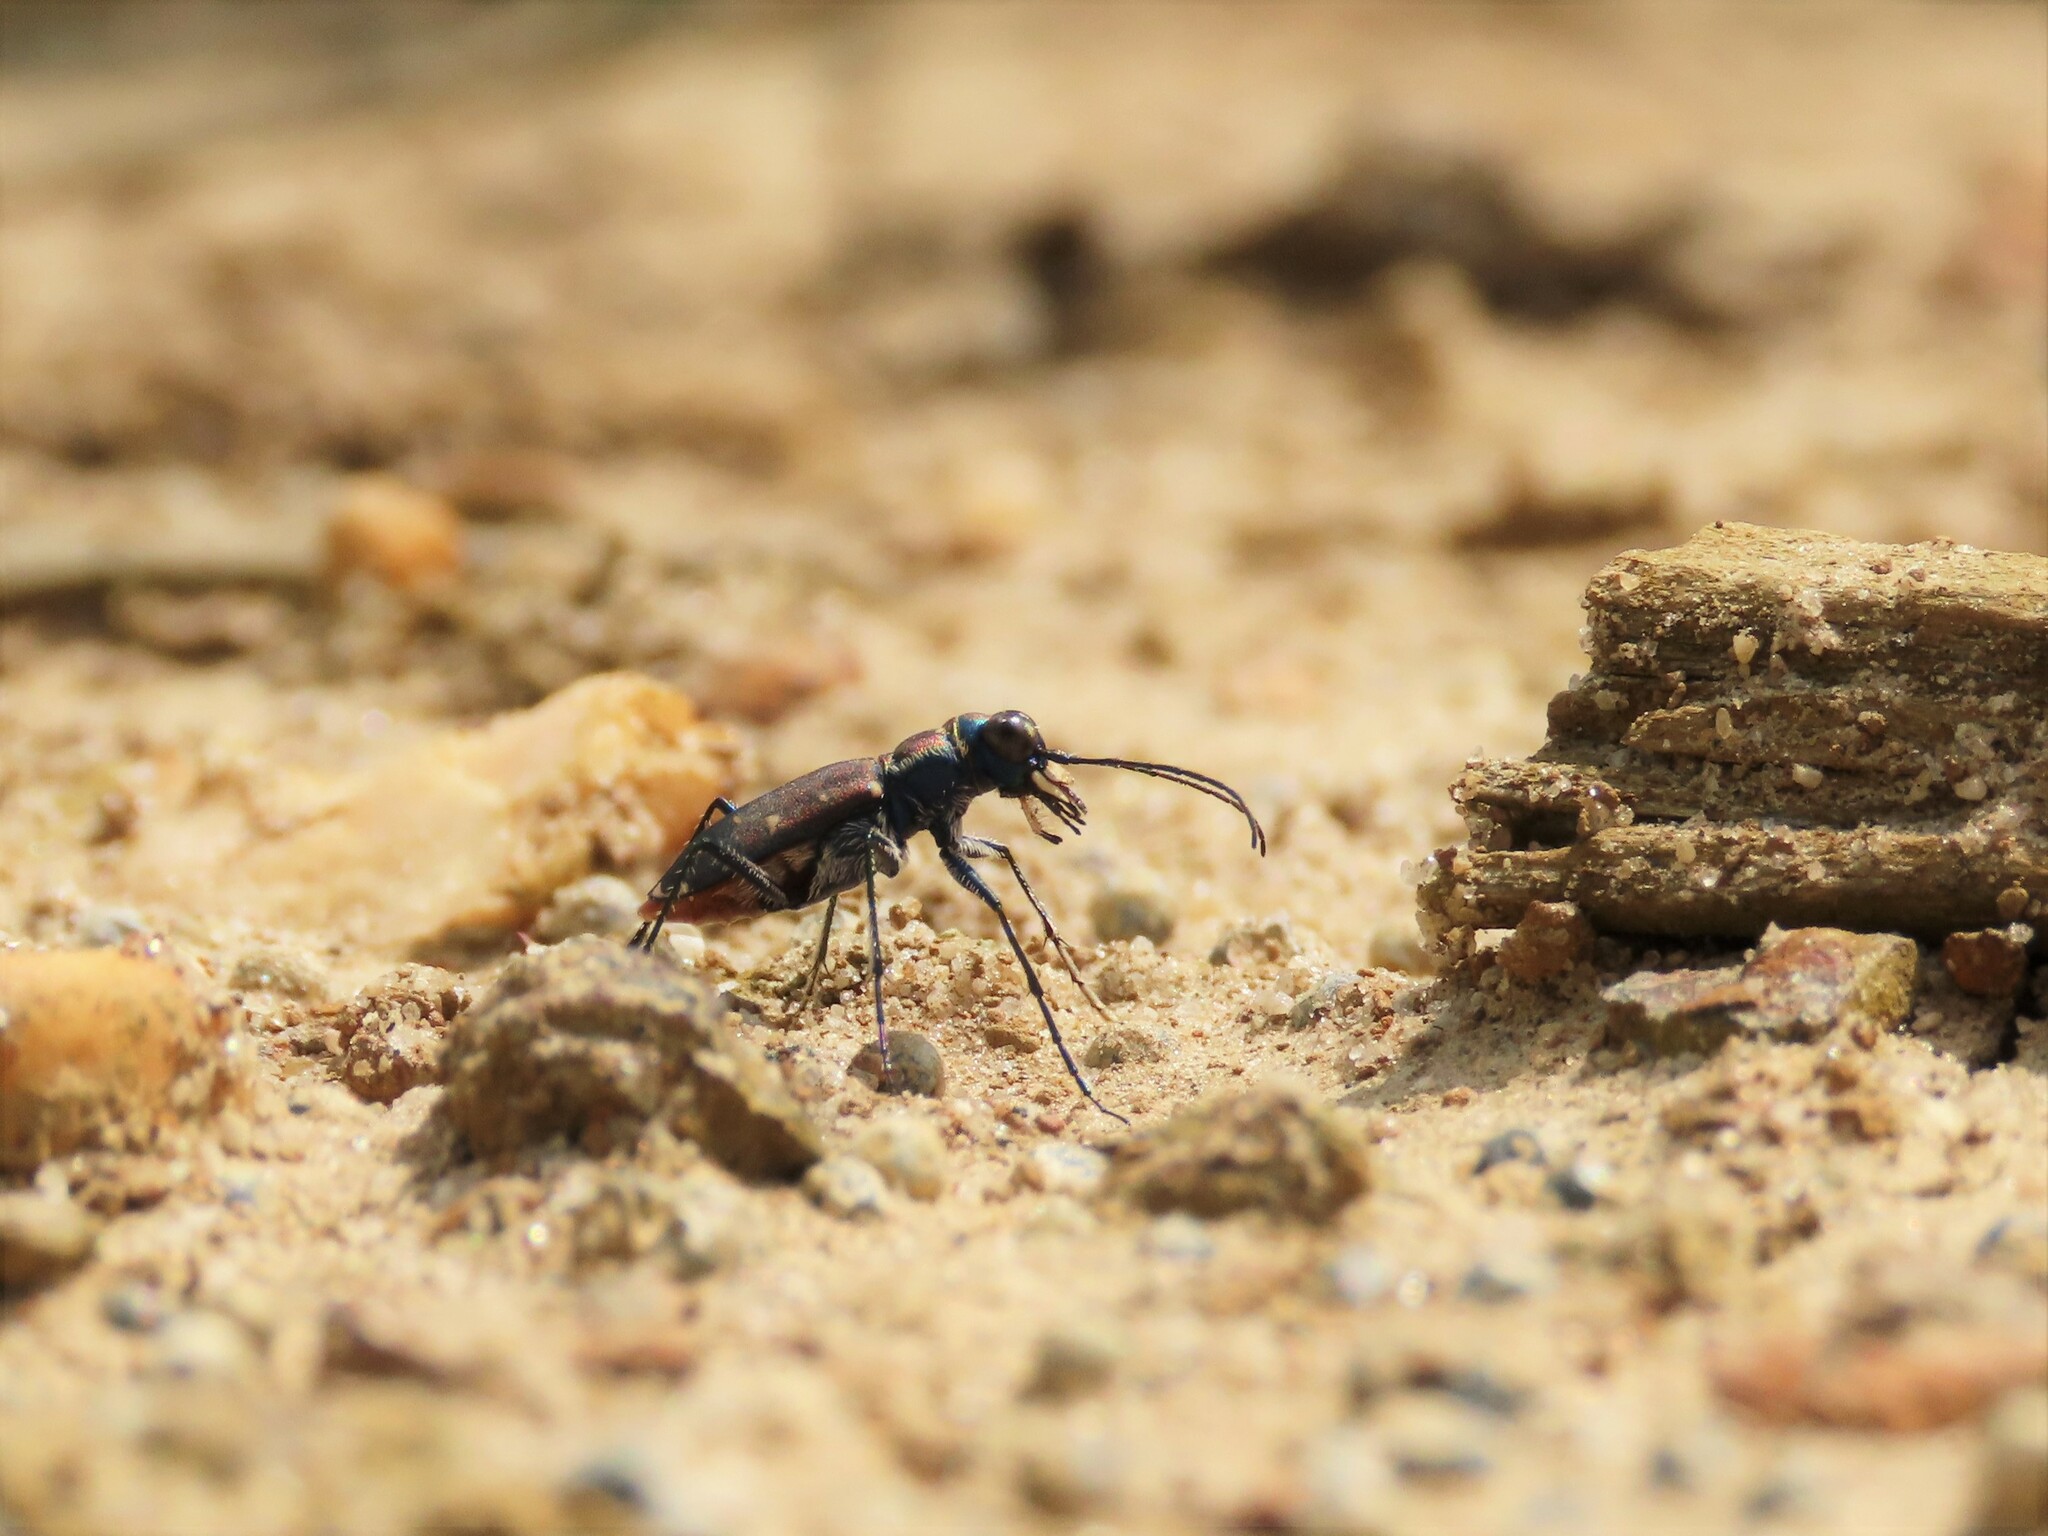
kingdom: Animalia
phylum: Arthropoda
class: Insecta
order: Coleoptera
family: Carabidae
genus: Cicindela
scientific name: Cicindela rufiventris
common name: Eastern red-bellied tiger beetle
